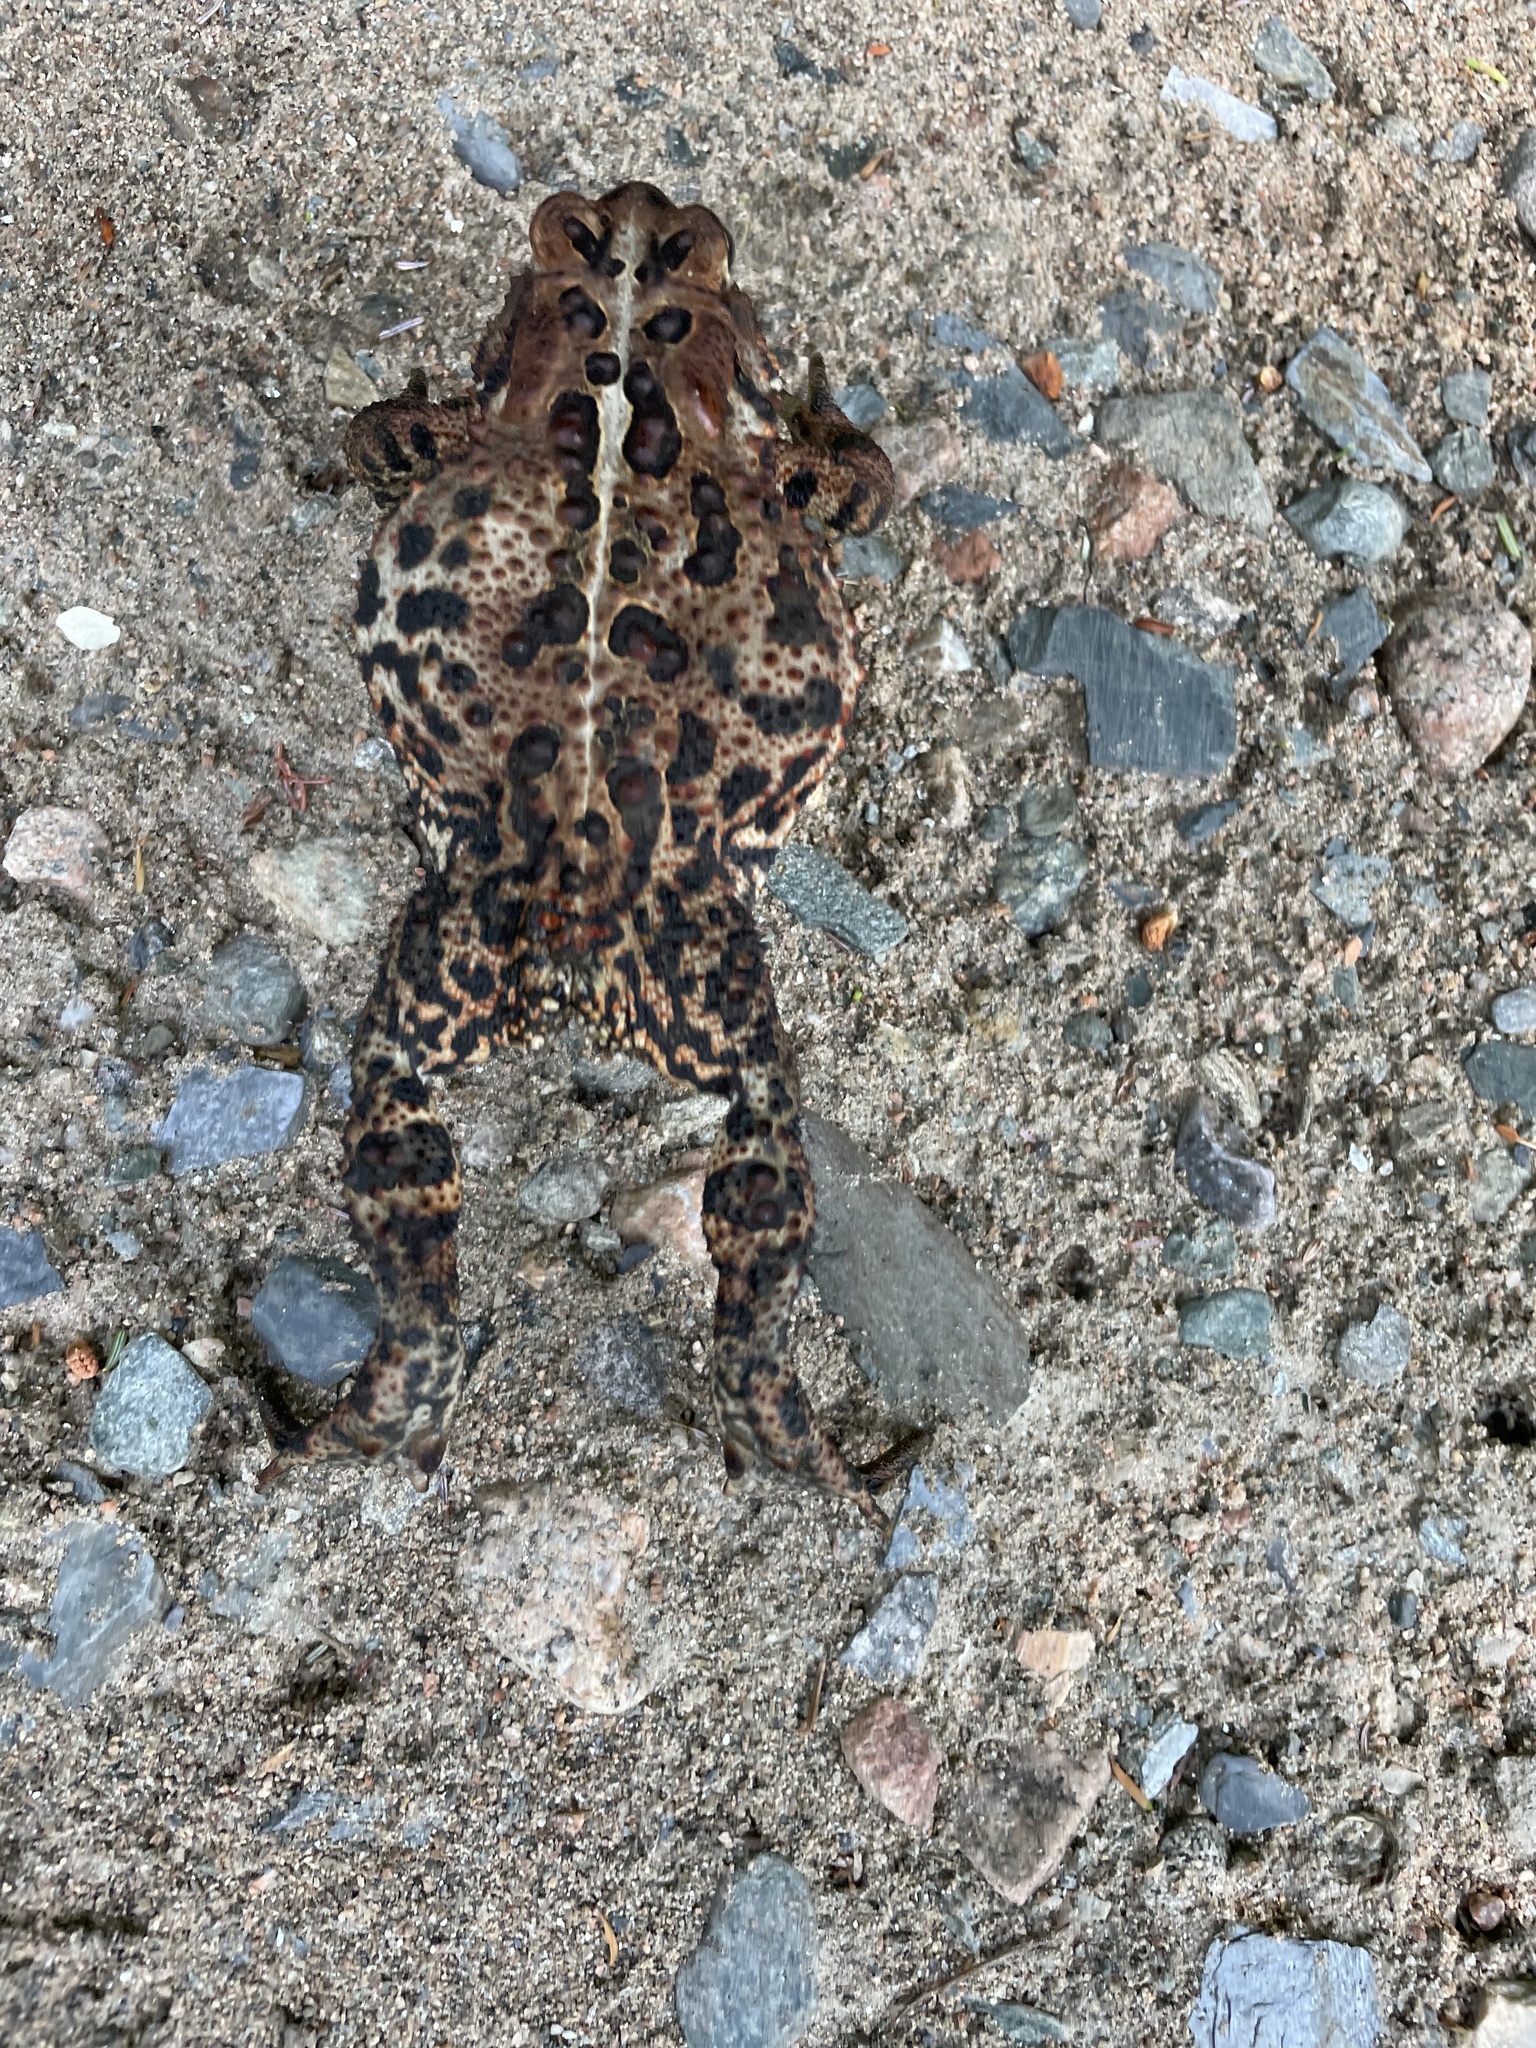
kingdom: Animalia
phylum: Chordata
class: Amphibia
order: Anura
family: Bufonidae
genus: Anaxyrus
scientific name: Anaxyrus americanus
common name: American toad
